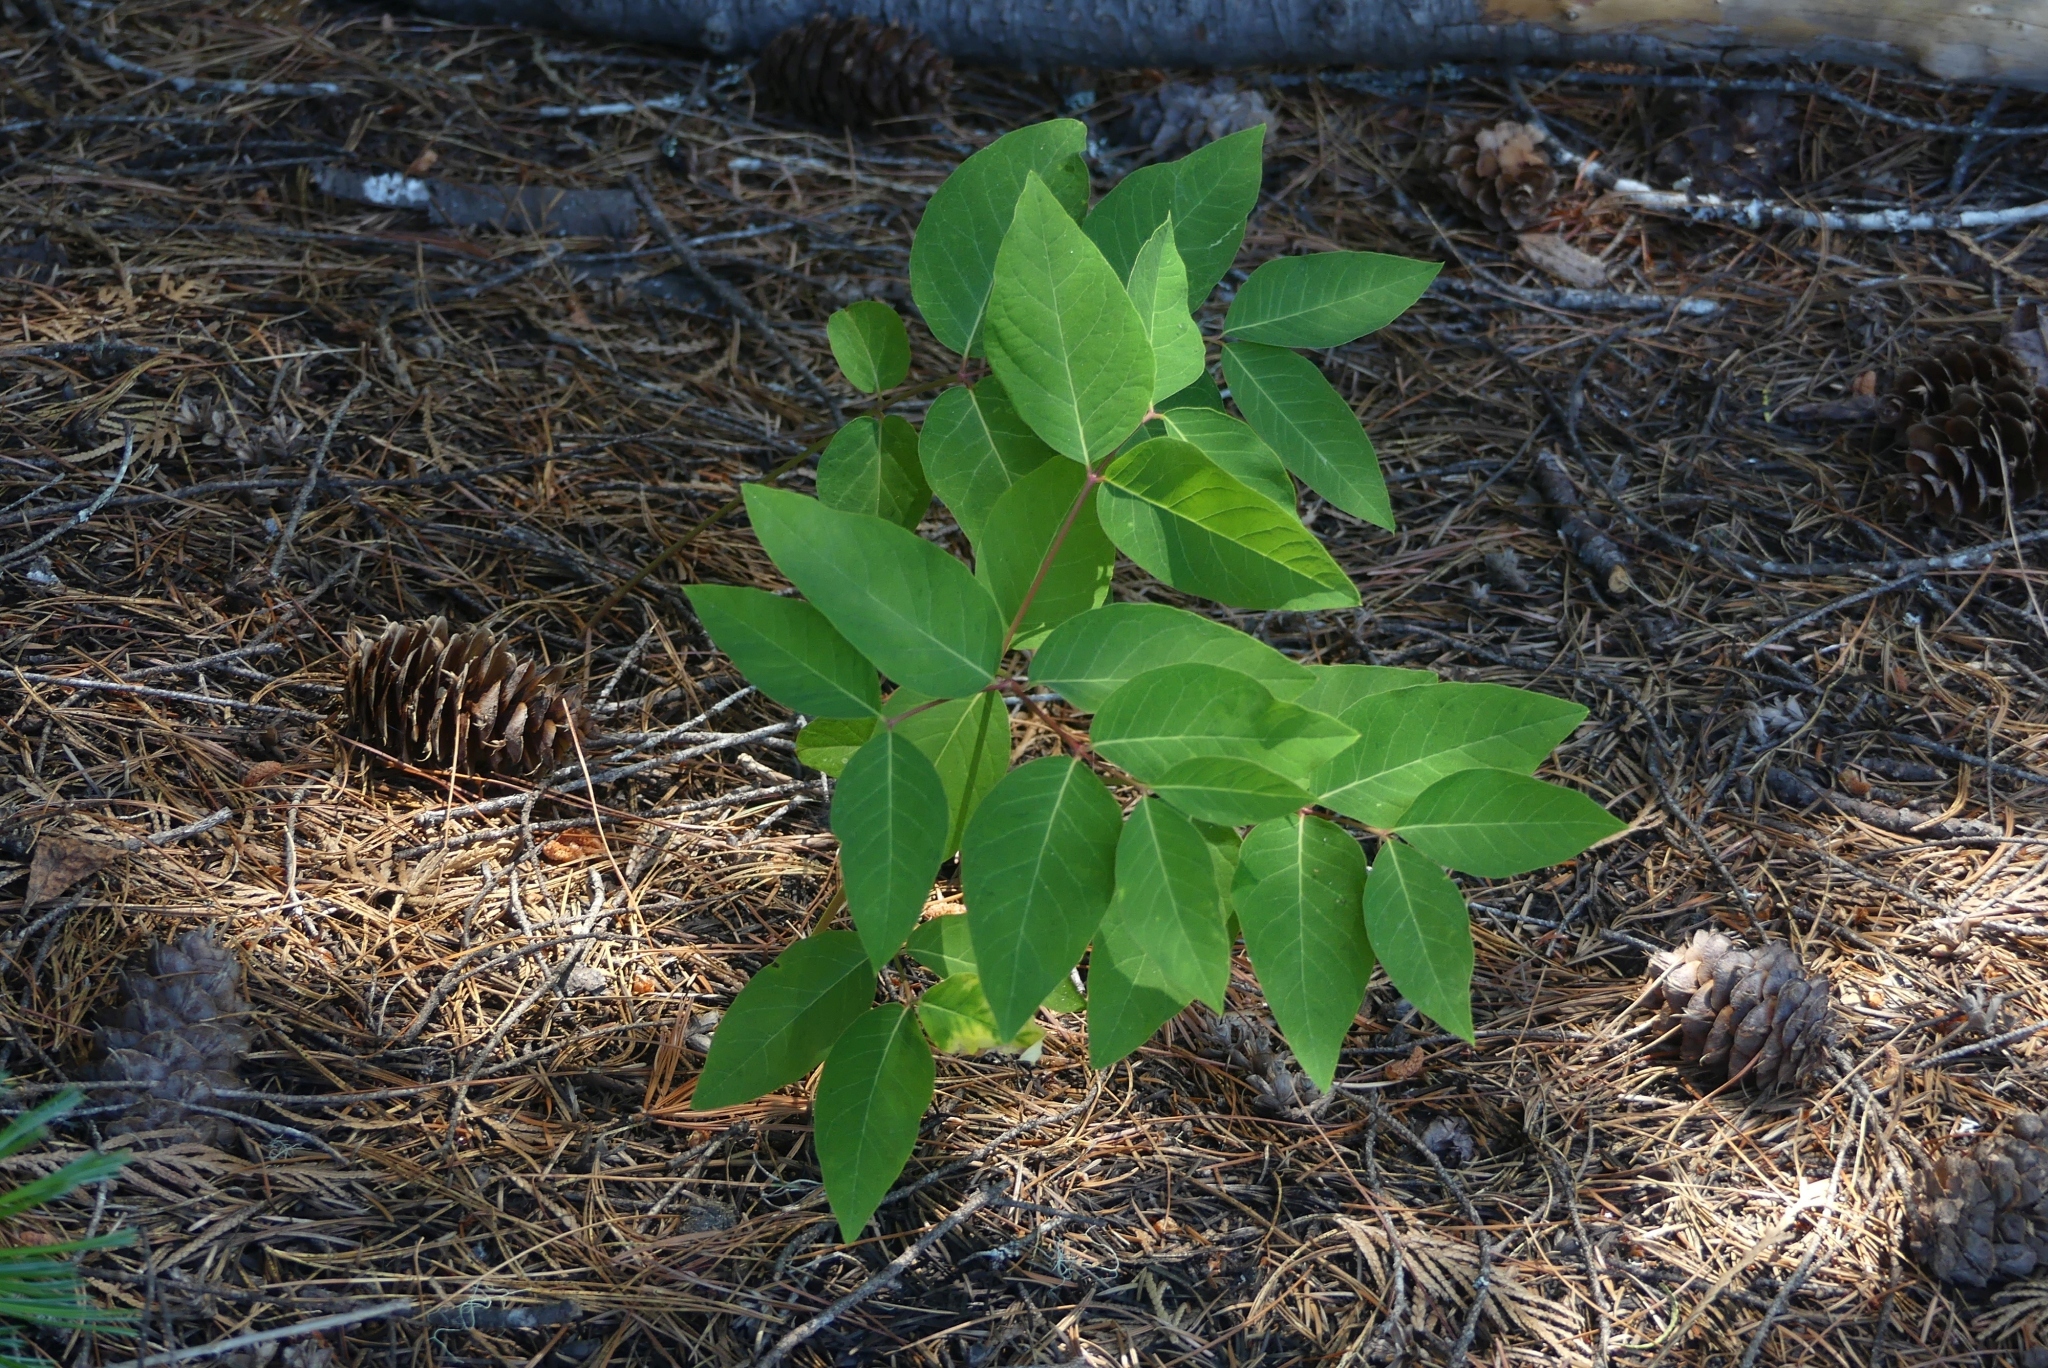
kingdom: Plantae
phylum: Tracheophyta
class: Magnoliopsida
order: Gentianales
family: Apocynaceae
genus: Apocynum
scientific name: Apocynum androsaemifolium
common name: Spreading dogbane
